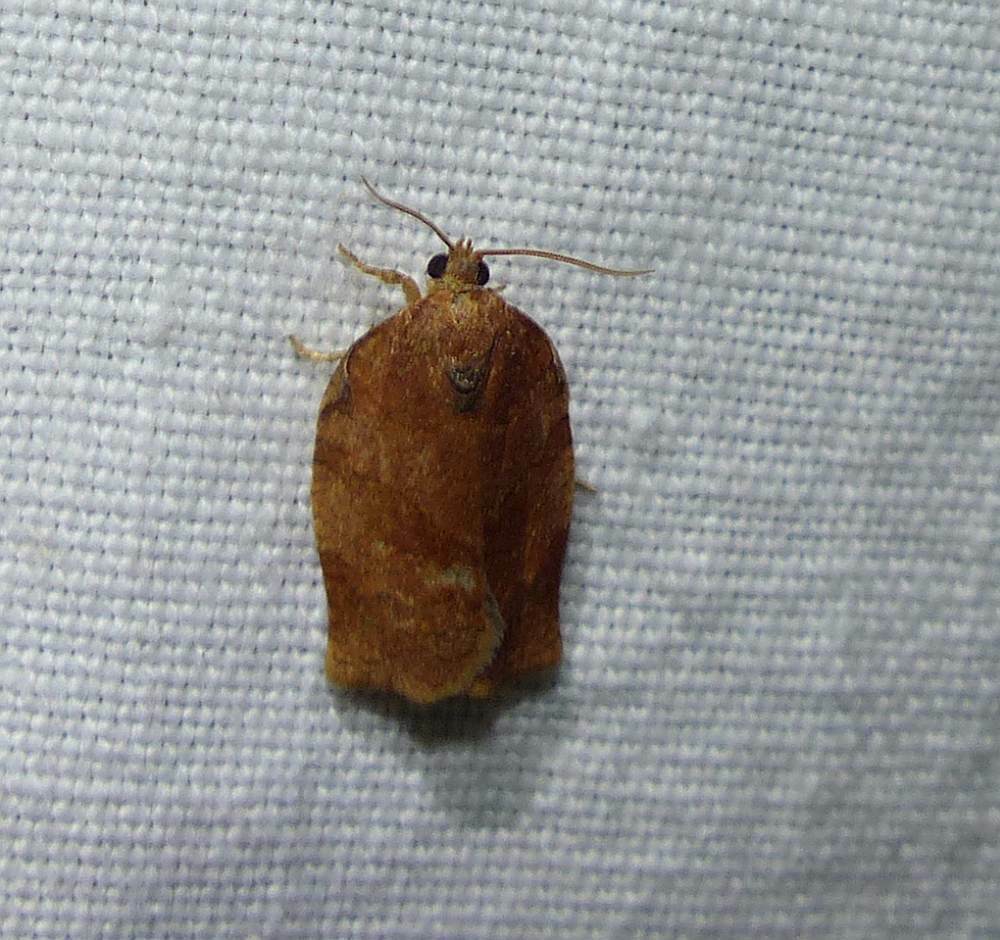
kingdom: Animalia
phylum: Arthropoda
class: Insecta
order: Lepidoptera
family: Tortricidae
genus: Choristoneura
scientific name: Choristoneura rosaceana
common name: Oblique-banded leafroller moth
